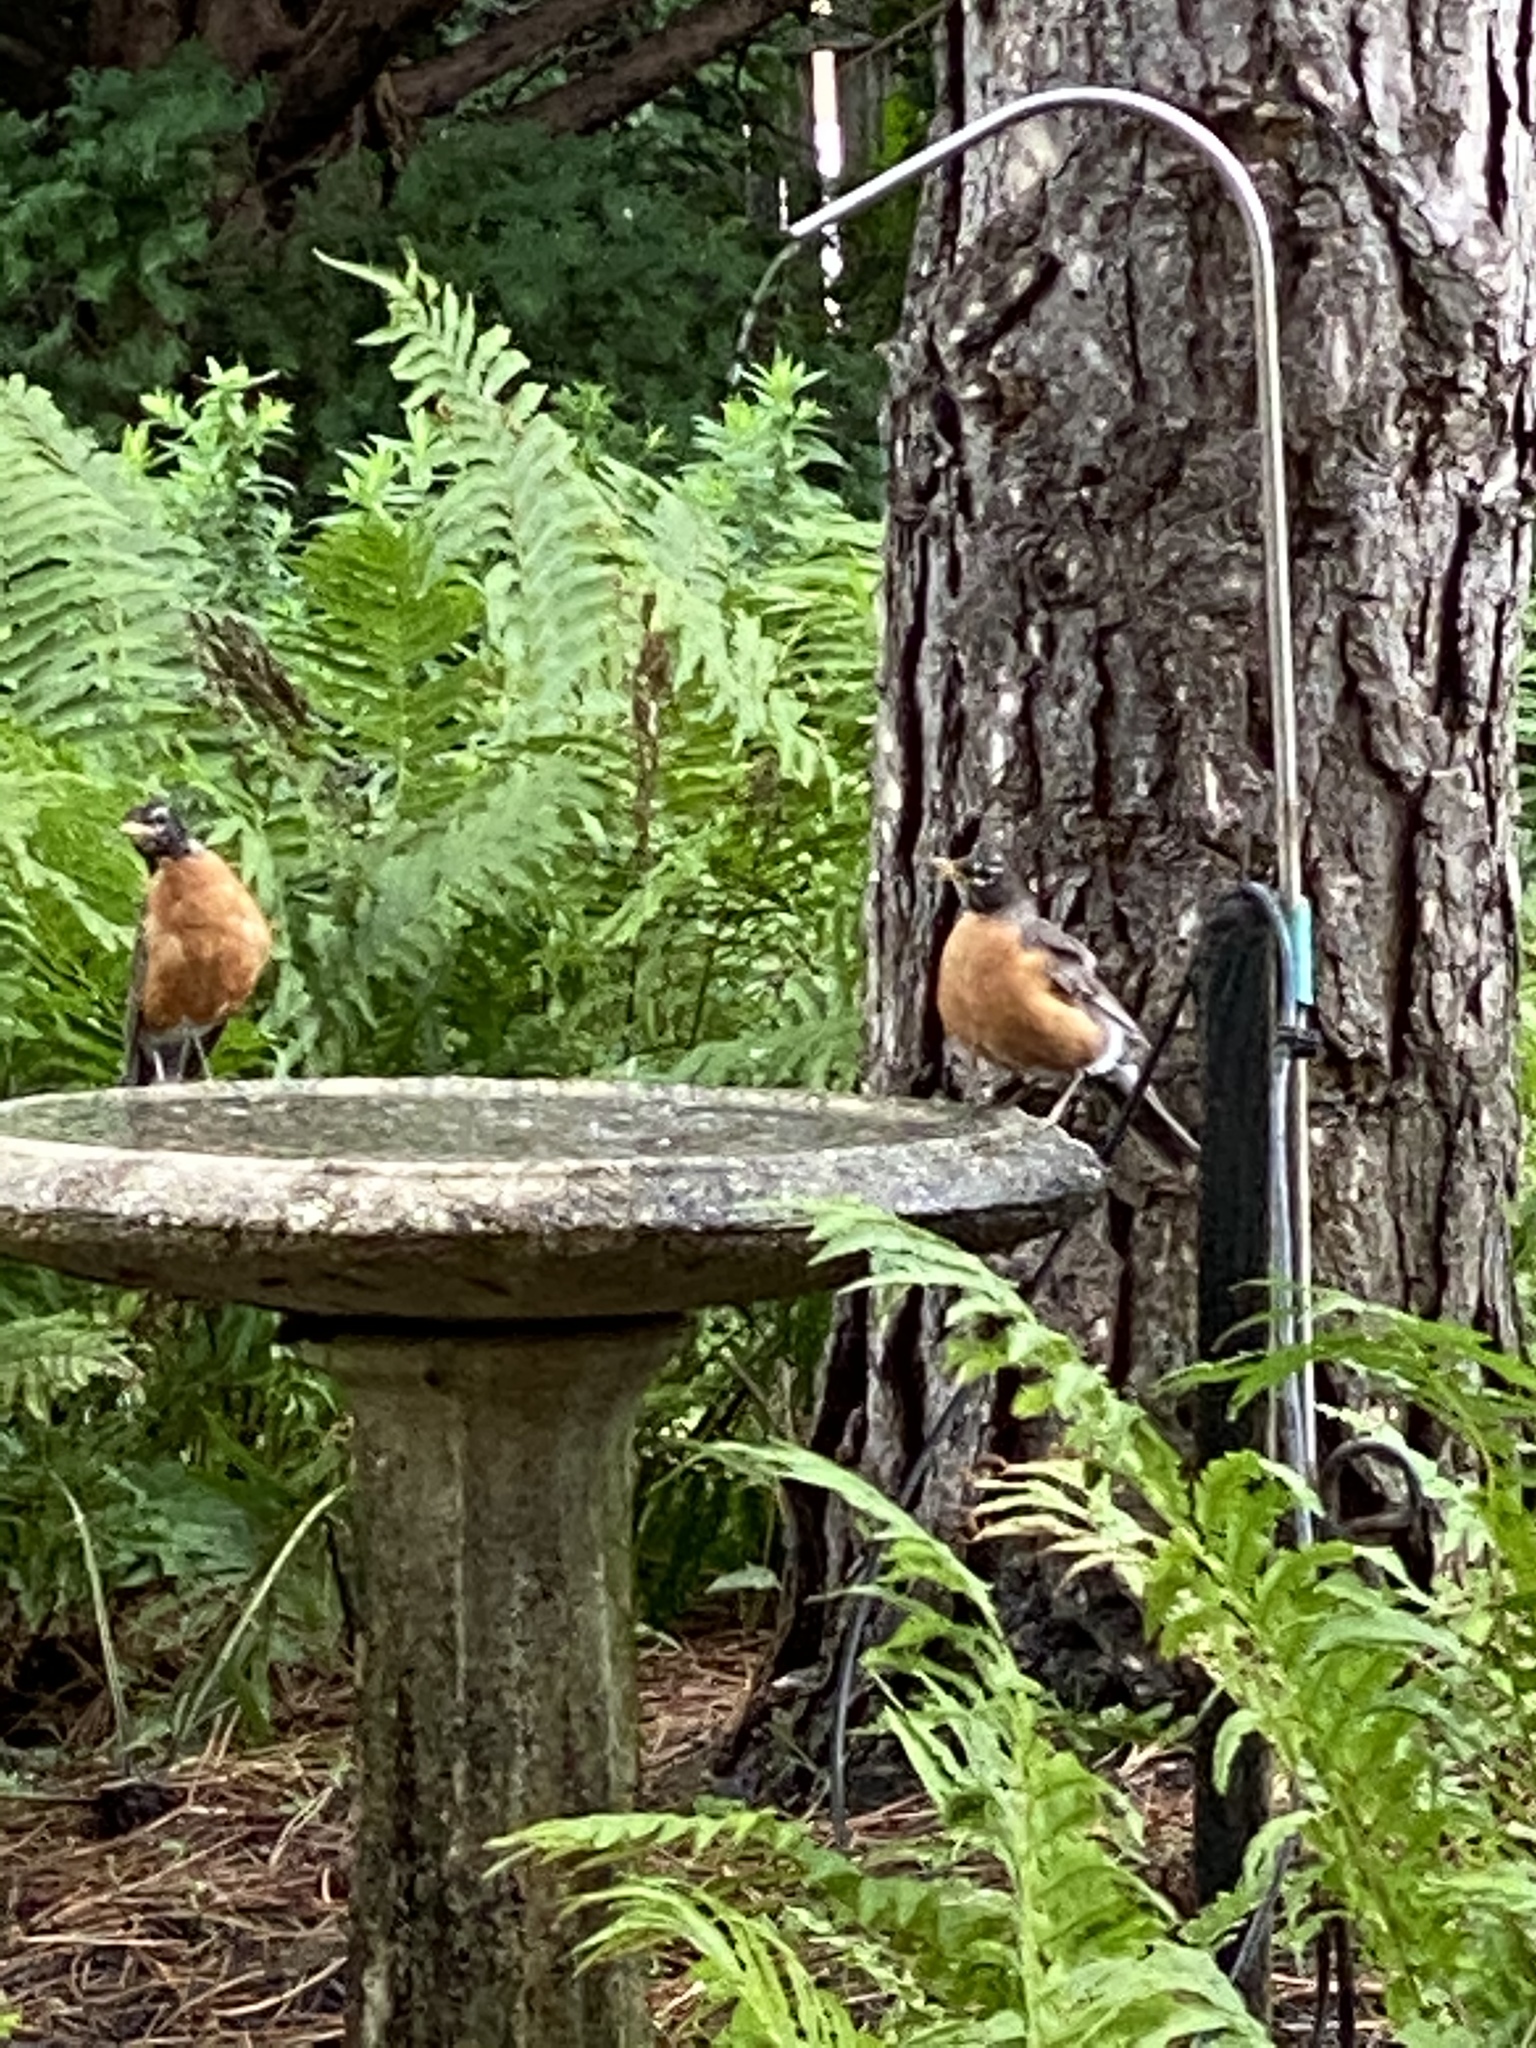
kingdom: Animalia
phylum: Chordata
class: Aves
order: Passeriformes
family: Turdidae
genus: Turdus
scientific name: Turdus migratorius
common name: American robin
